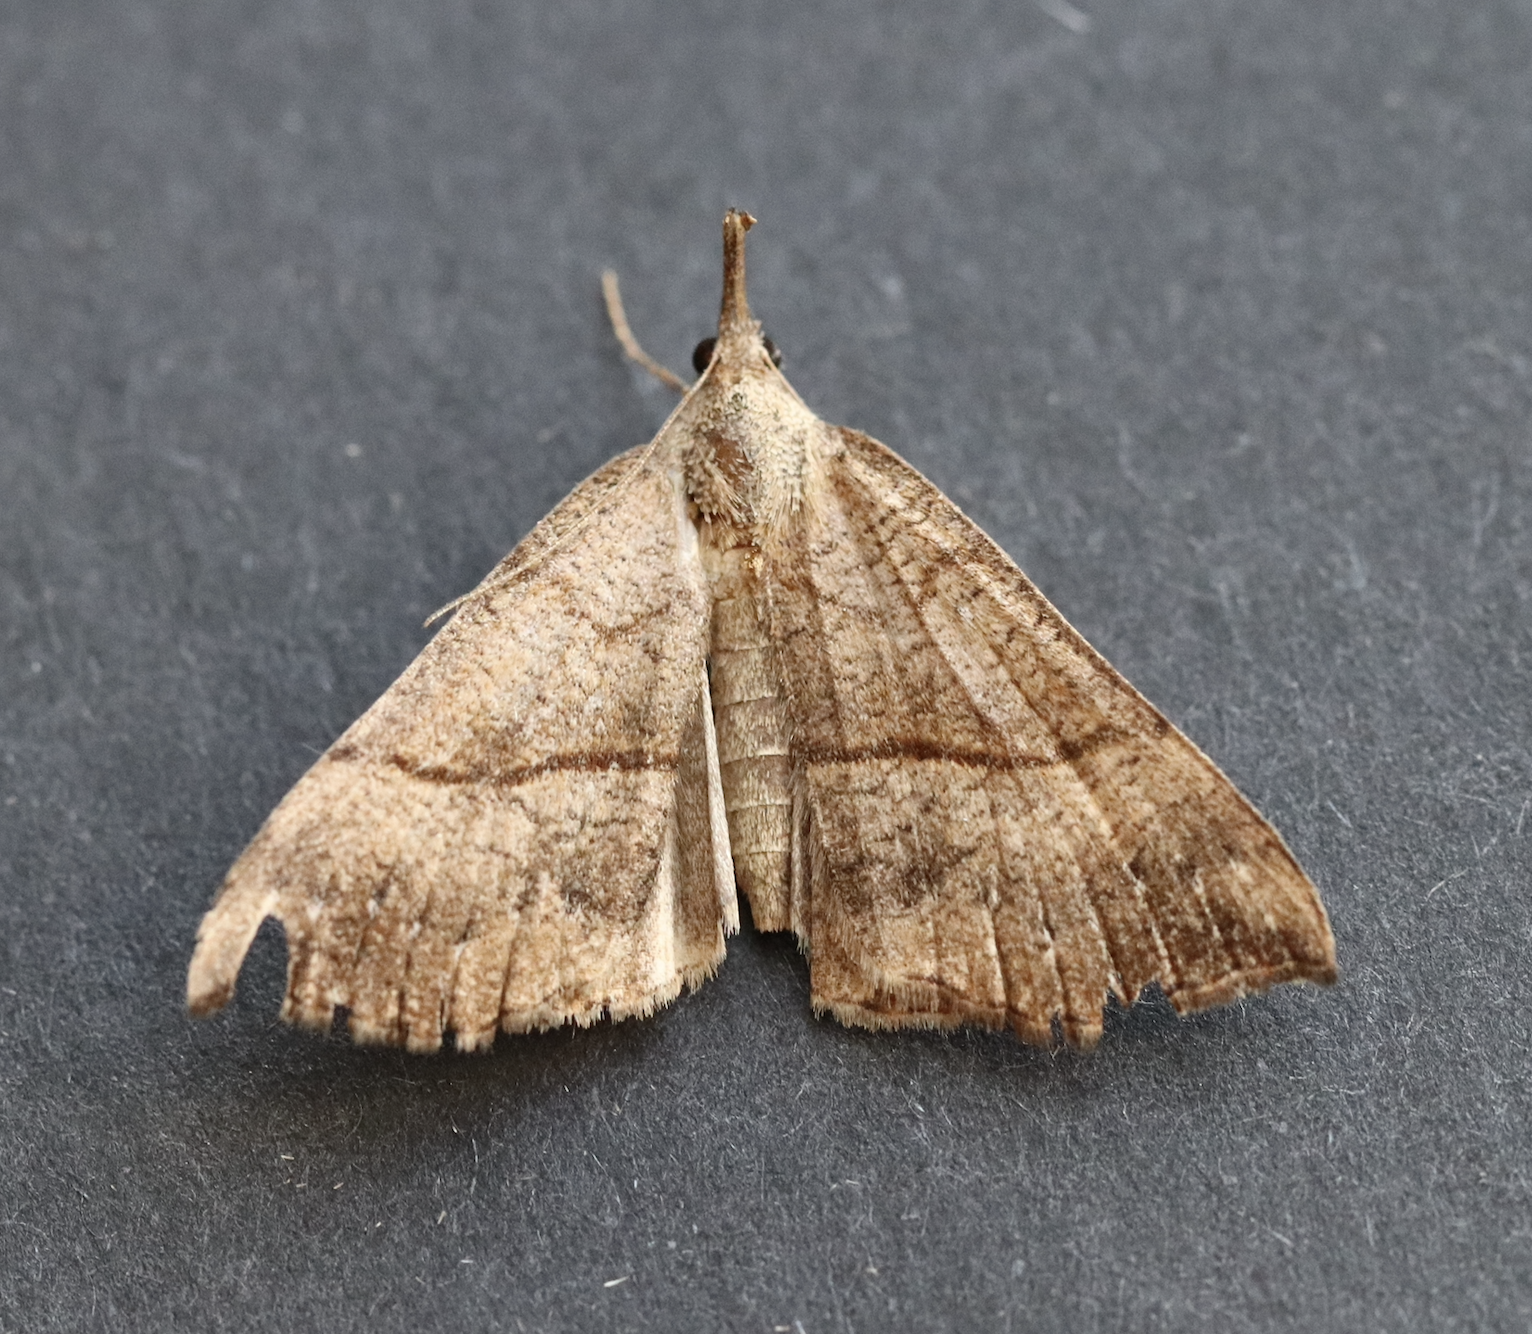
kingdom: Animalia
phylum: Arthropoda
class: Insecta
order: Lepidoptera
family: Erebidae
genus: Hypena
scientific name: Hypena proboscidalis
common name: Snout
